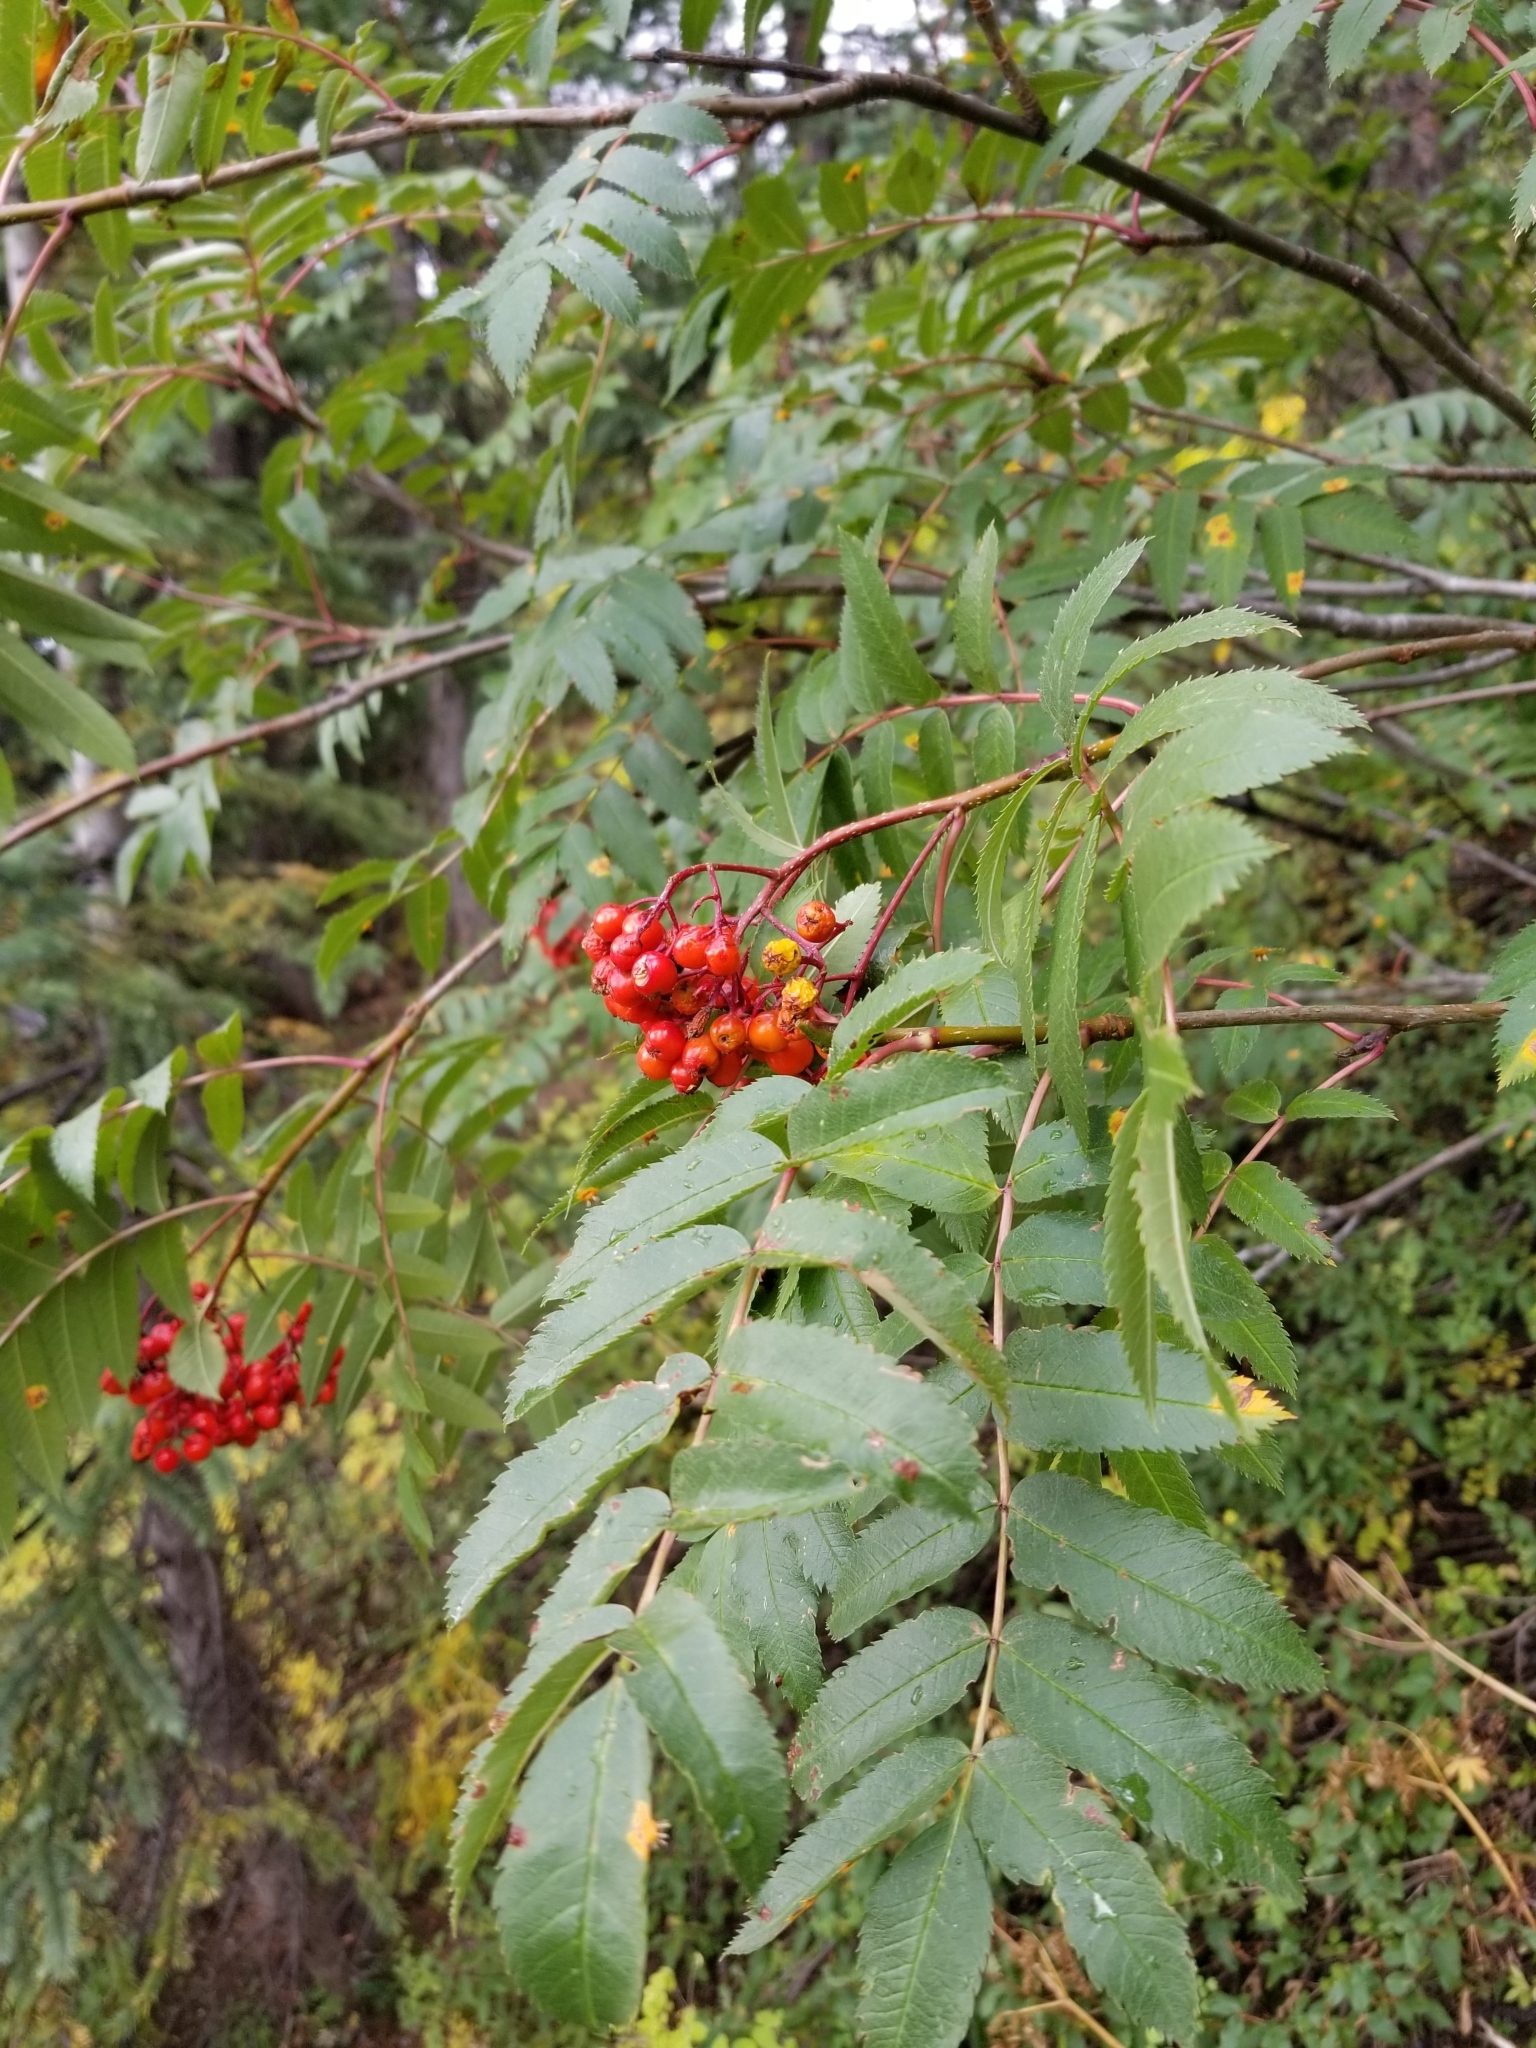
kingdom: Plantae
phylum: Tracheophyta
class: Magnoliopsida
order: Rosales
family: Rosaceae
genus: Sorbus
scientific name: Sorbus aucuparia
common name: Rowan
